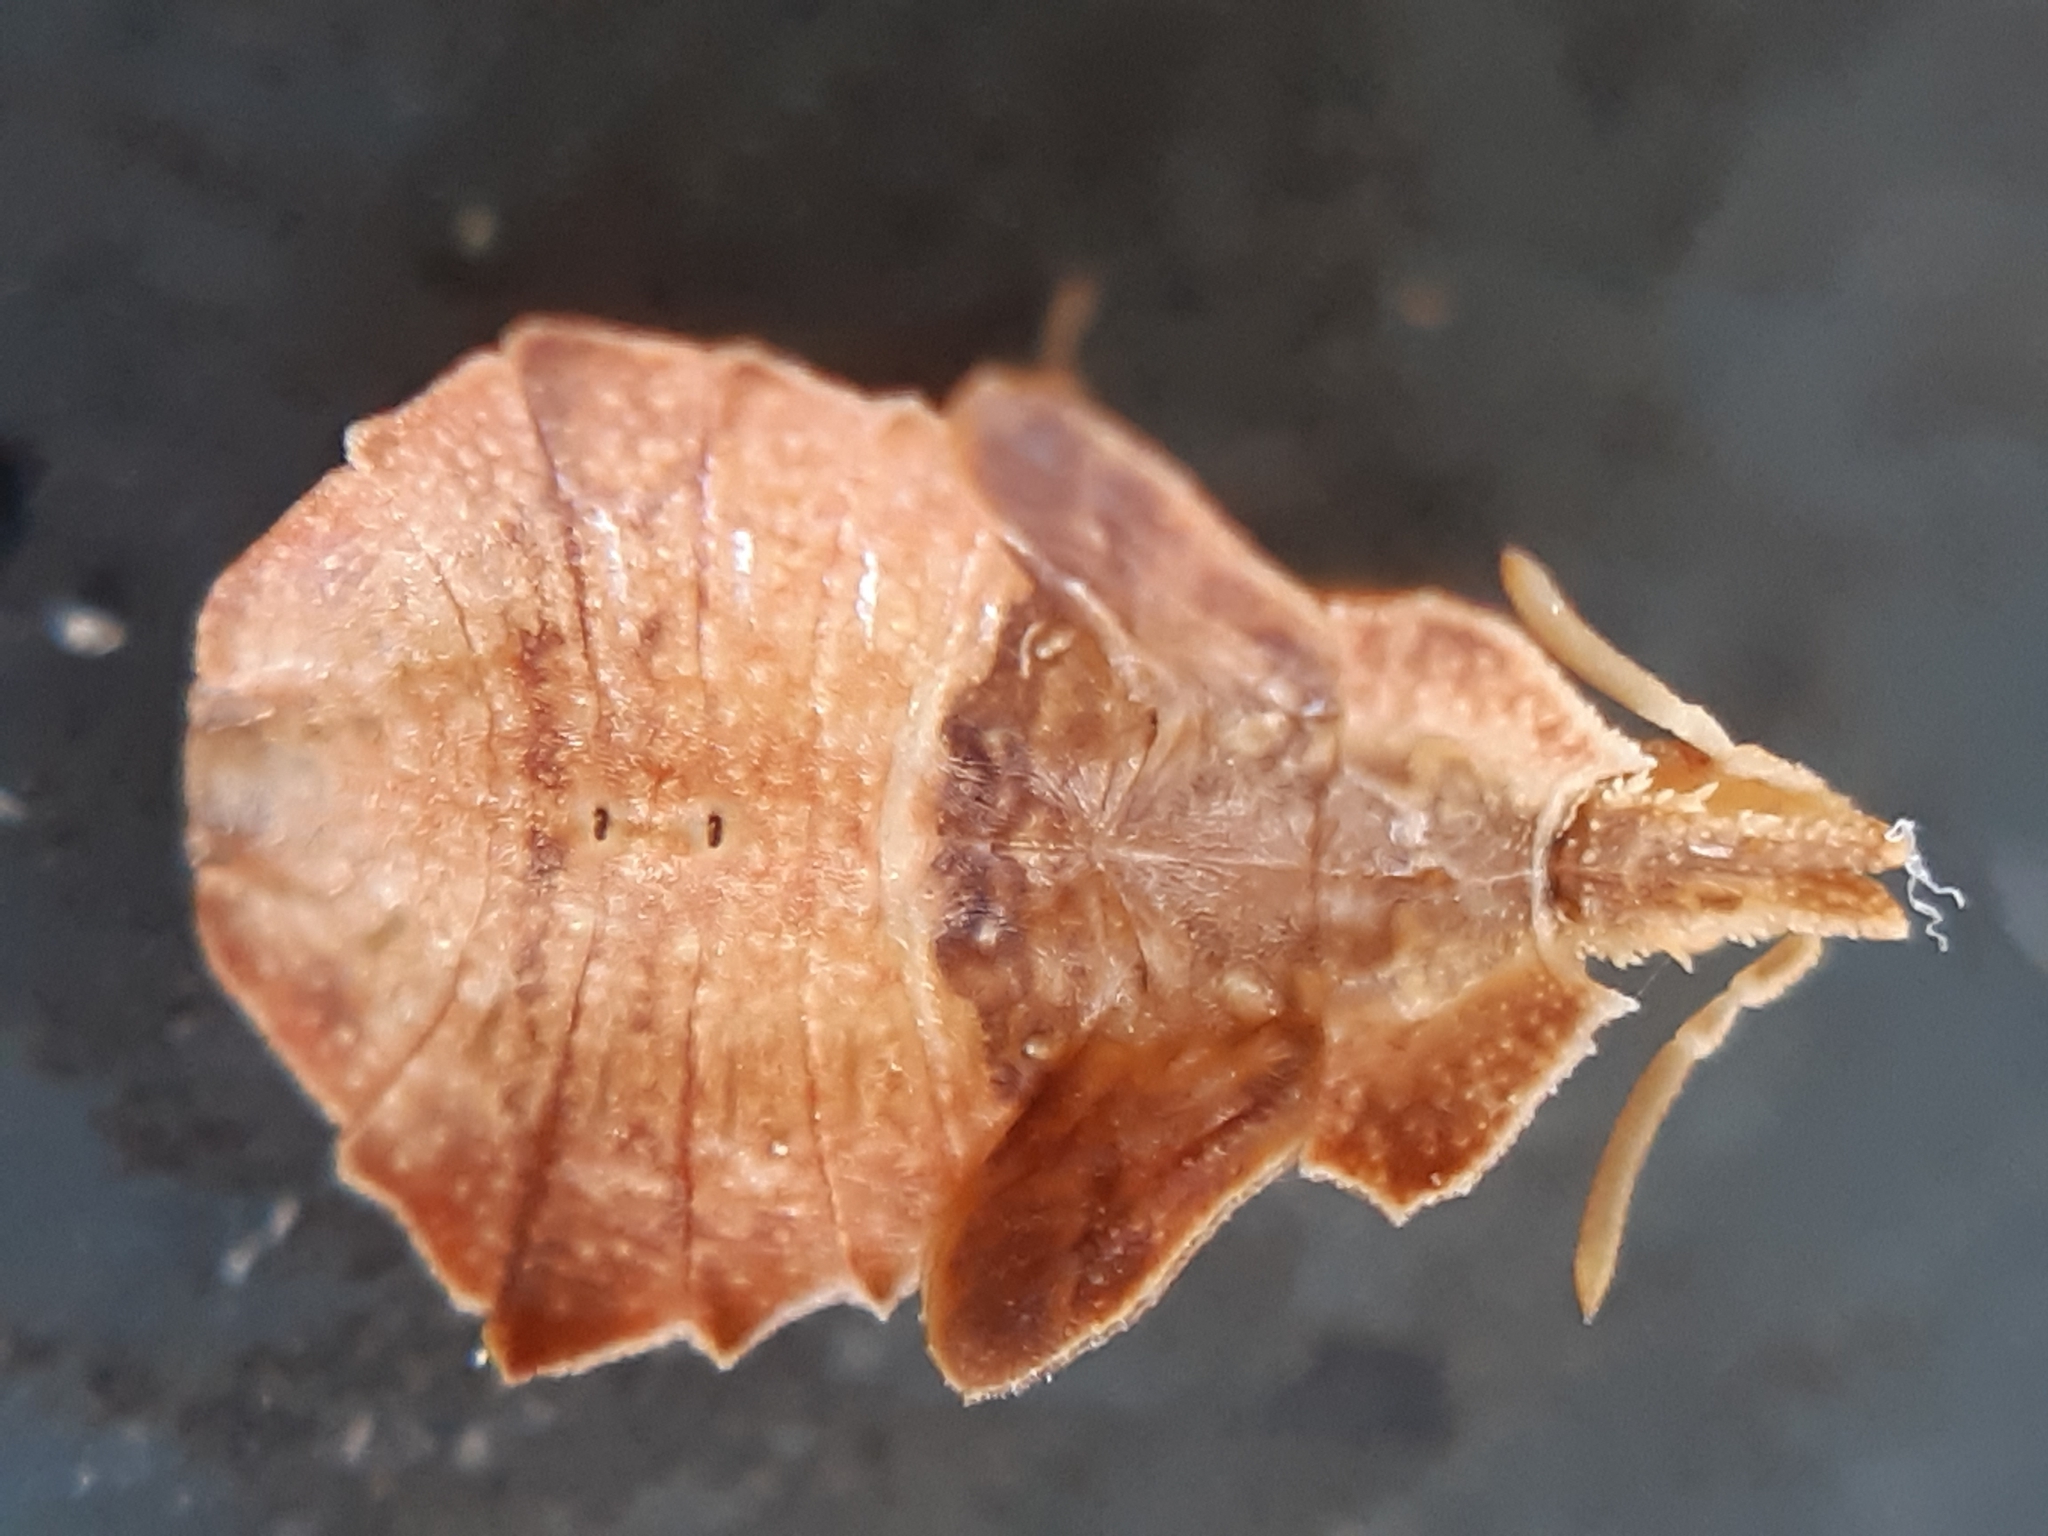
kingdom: Animalia
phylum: Arthropoda
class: Insecta
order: Hemiptera
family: Reduviidae
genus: Phymata
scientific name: Phymata crassipes
